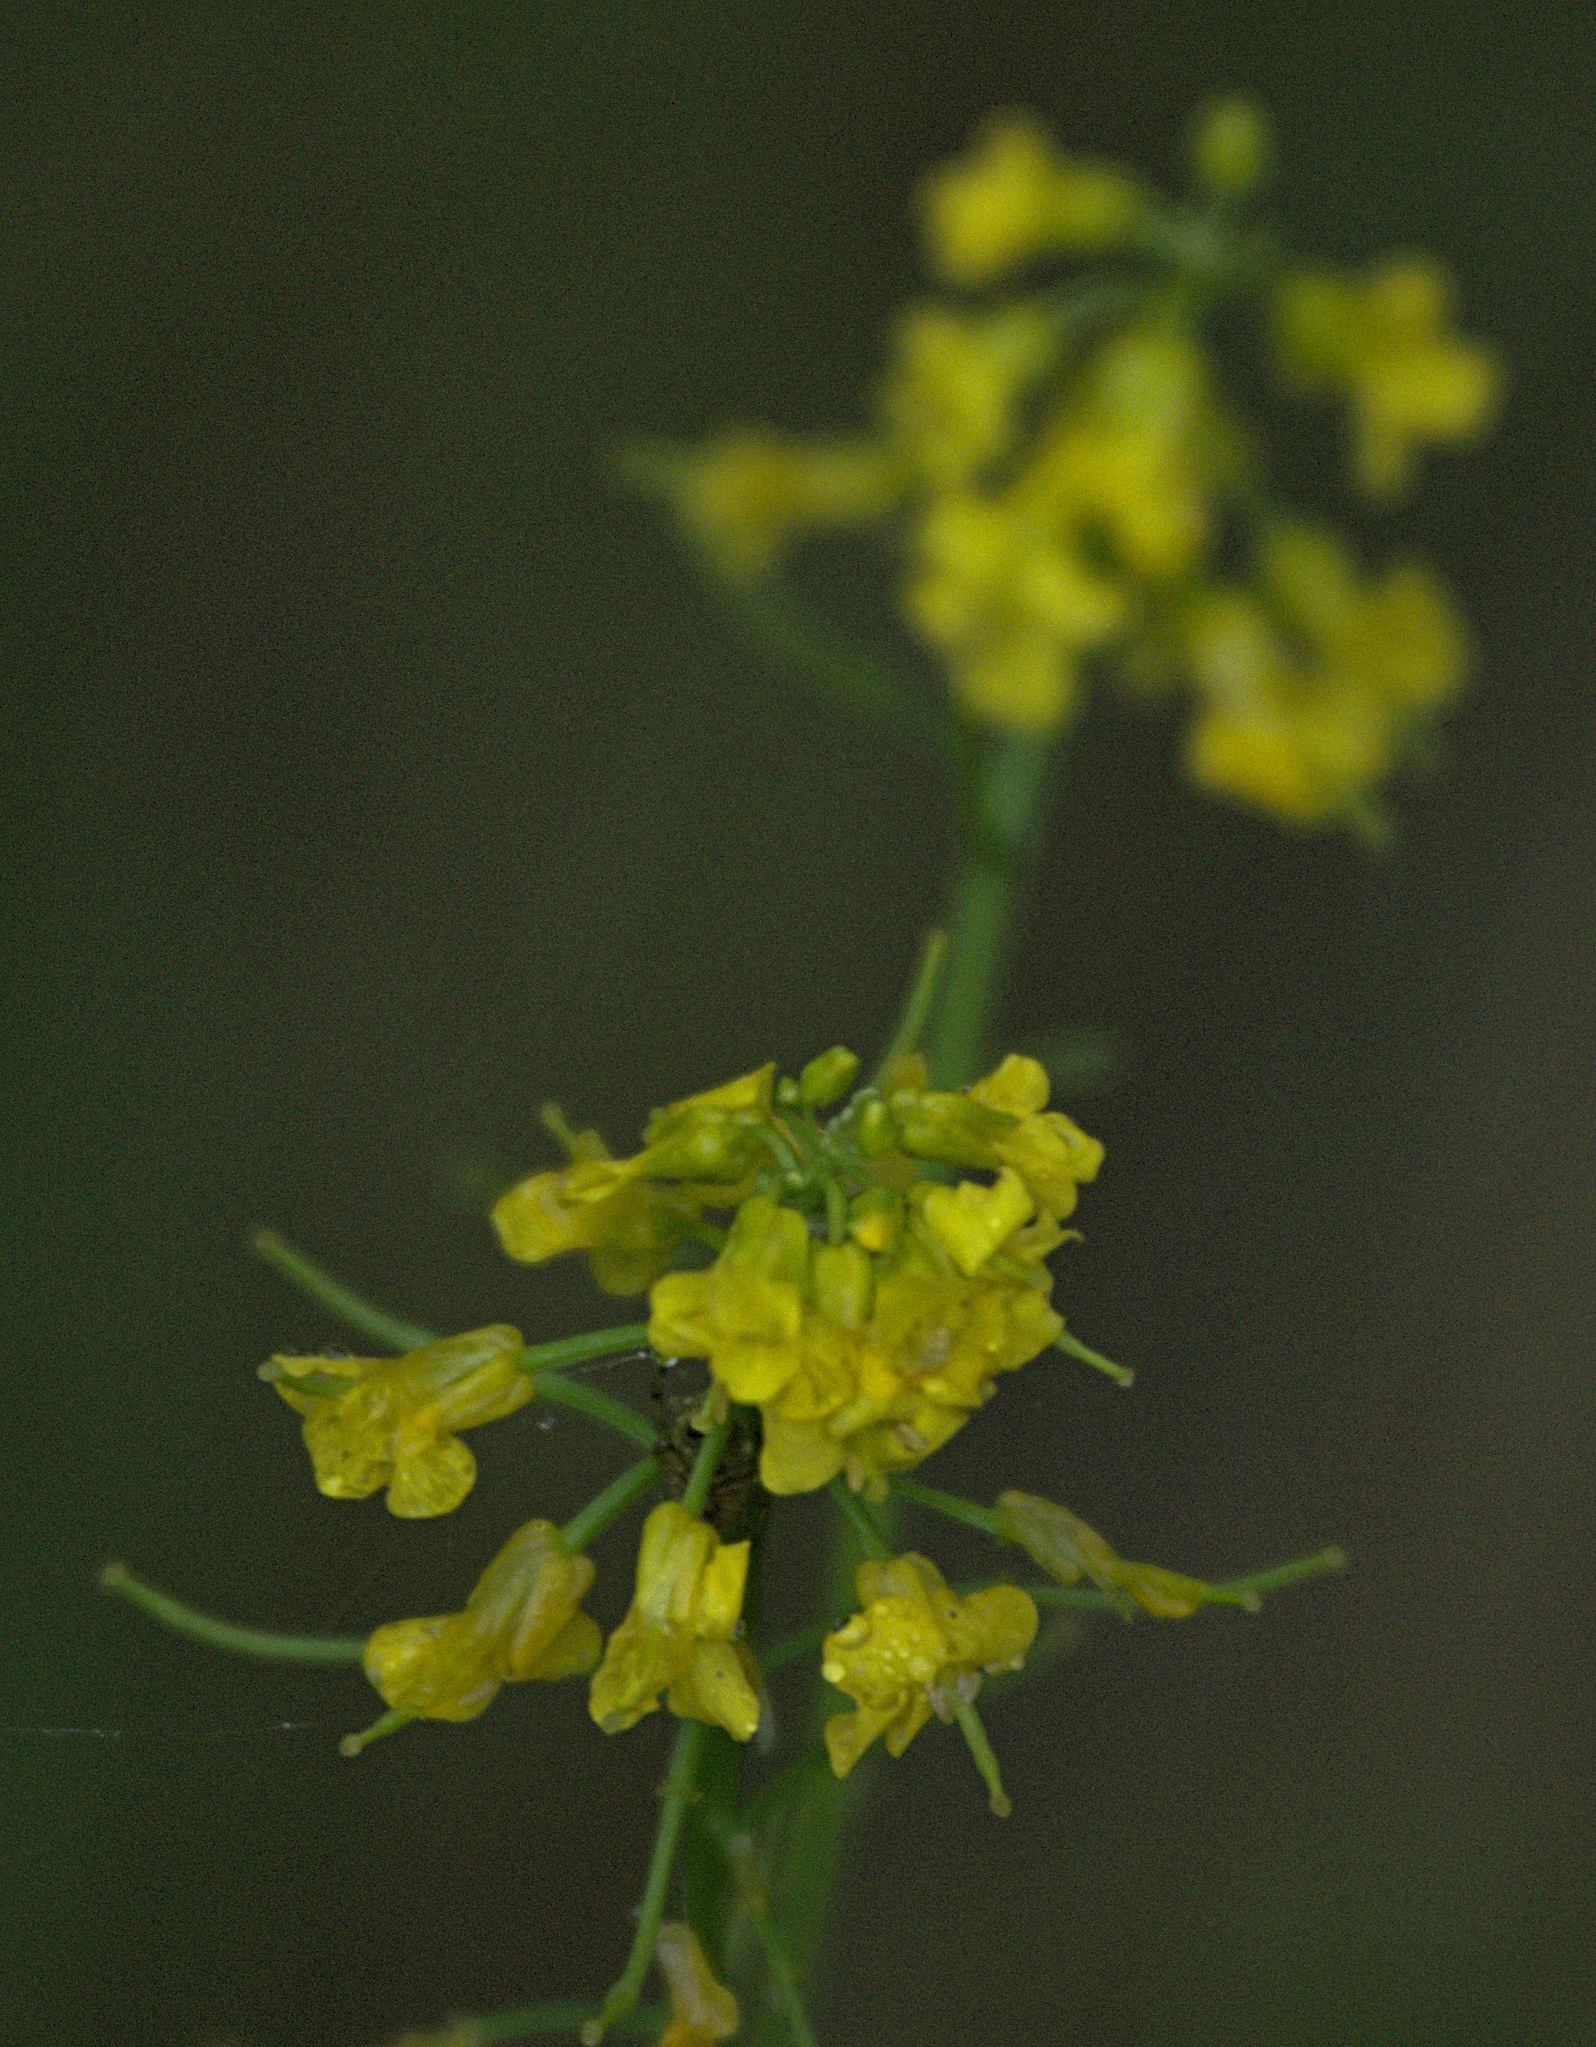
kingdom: Plantae
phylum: Tracheophyta
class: Magnoliopsida
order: Brassicales
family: Brassicaceae
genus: Barbarea
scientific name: Barbarea vulgaris
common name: Cressy-greens
